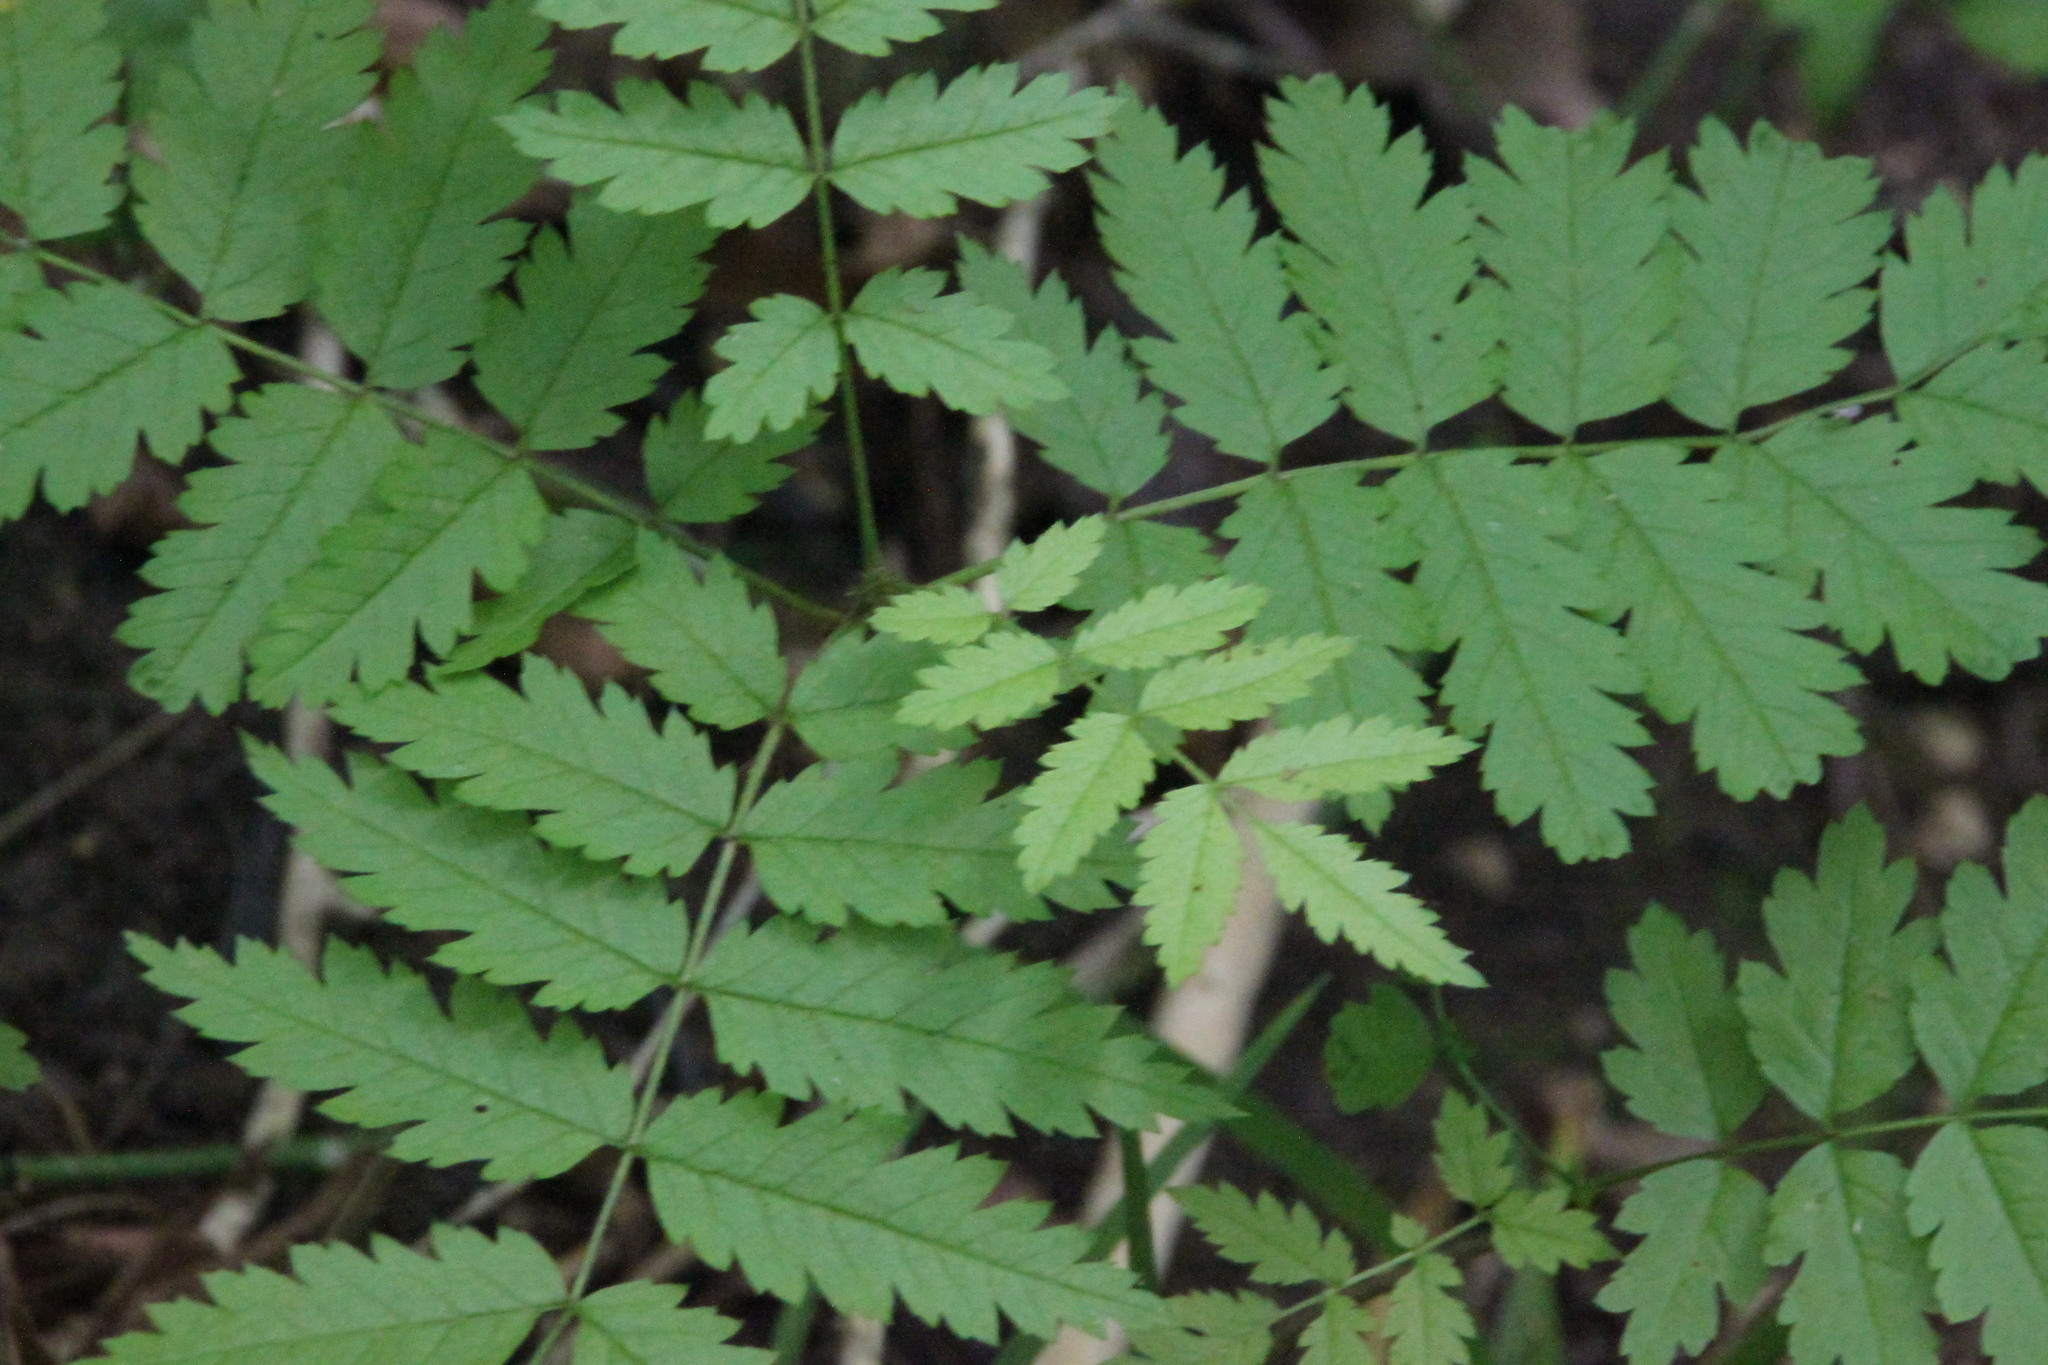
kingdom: Plantae
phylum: Tracheophyta
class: Magnoliopsida
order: Rosales
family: Rosaceae
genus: Sorbus
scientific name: Sorbus aucuparia
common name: Rowan
